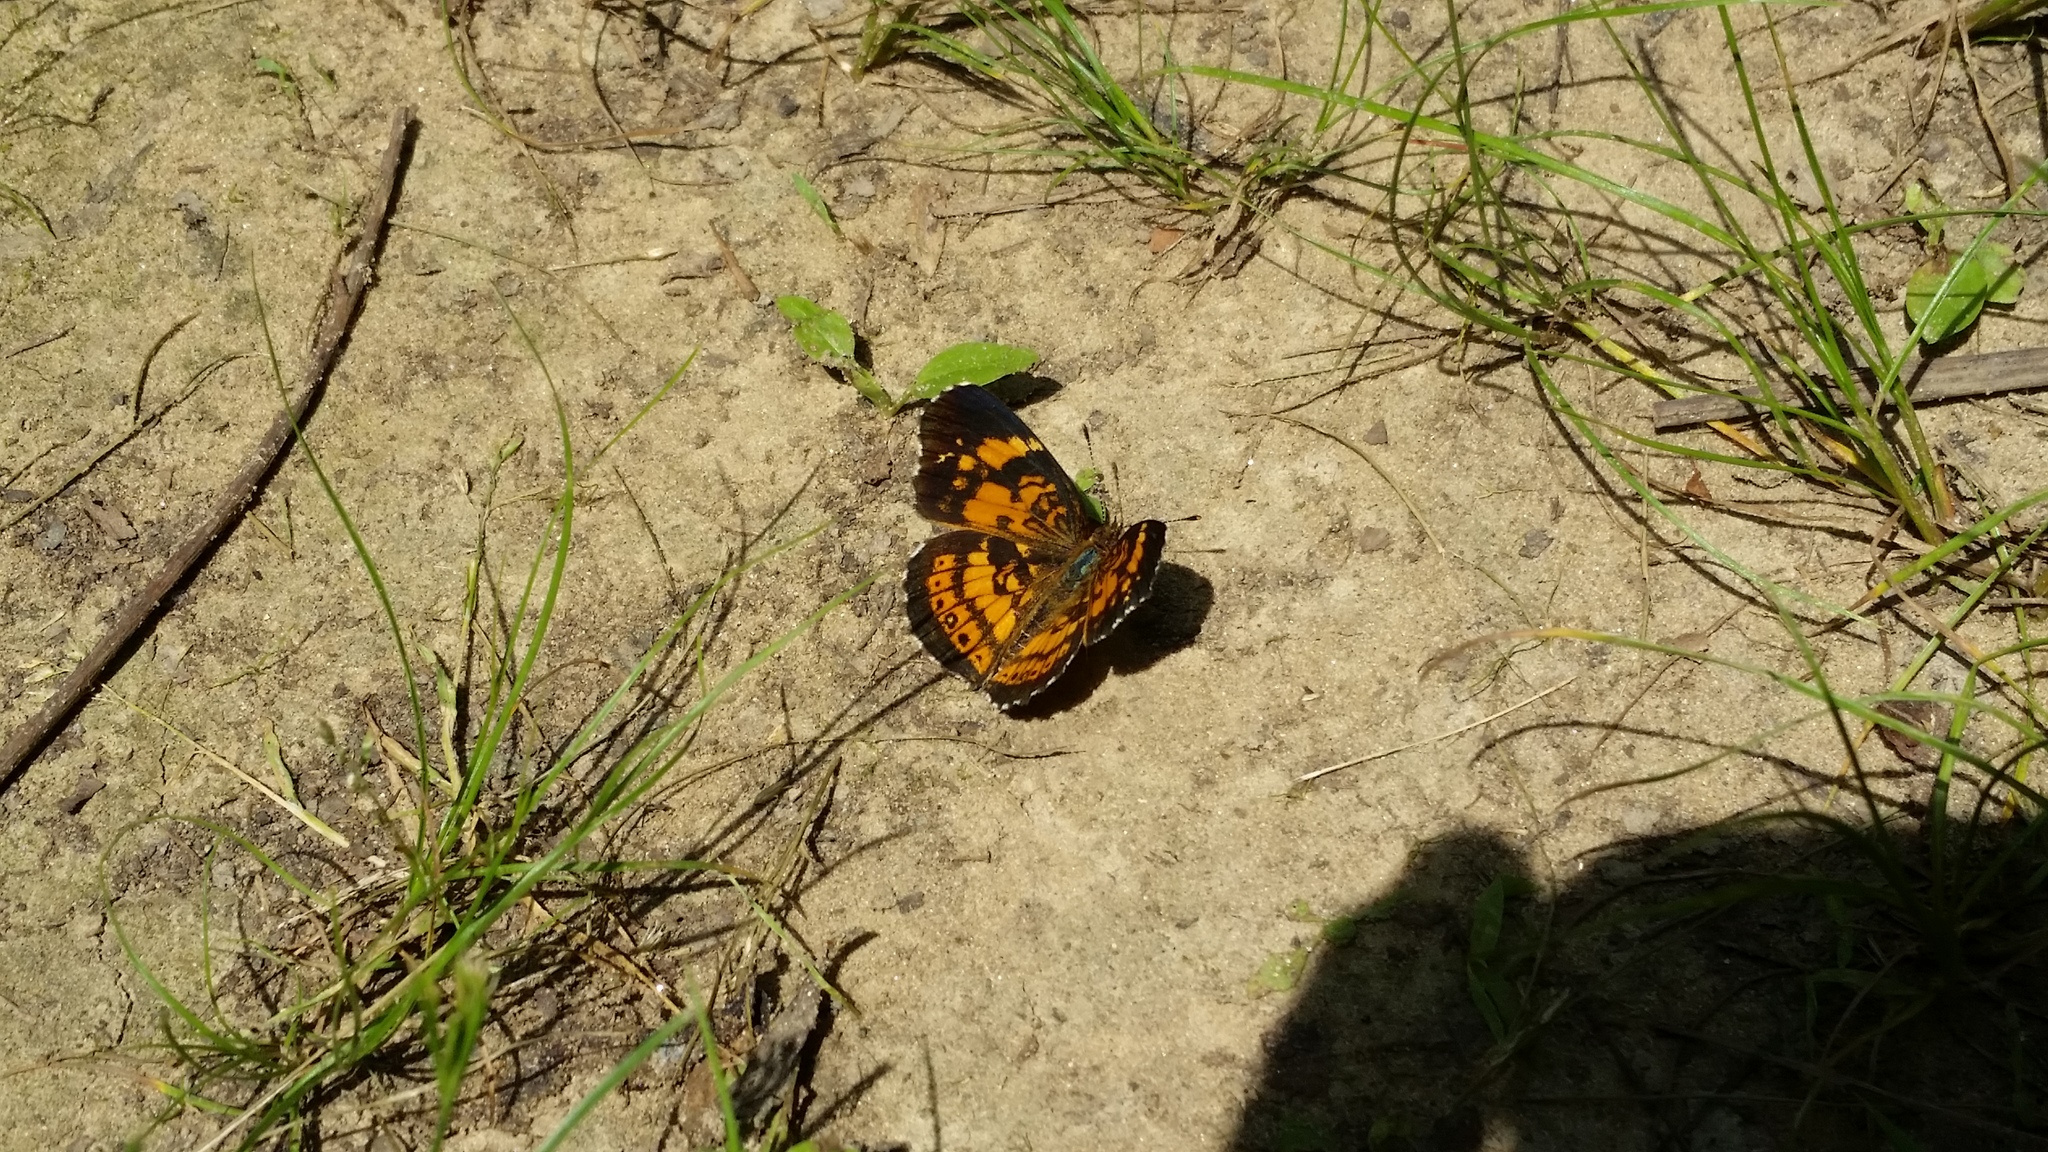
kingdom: Animalia
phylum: Arthropoda
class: Insecta
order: Lepidoptera
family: Nymphalidae
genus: Chlosyne
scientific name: Chlosyne nycteis
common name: Silvery checkerspot
